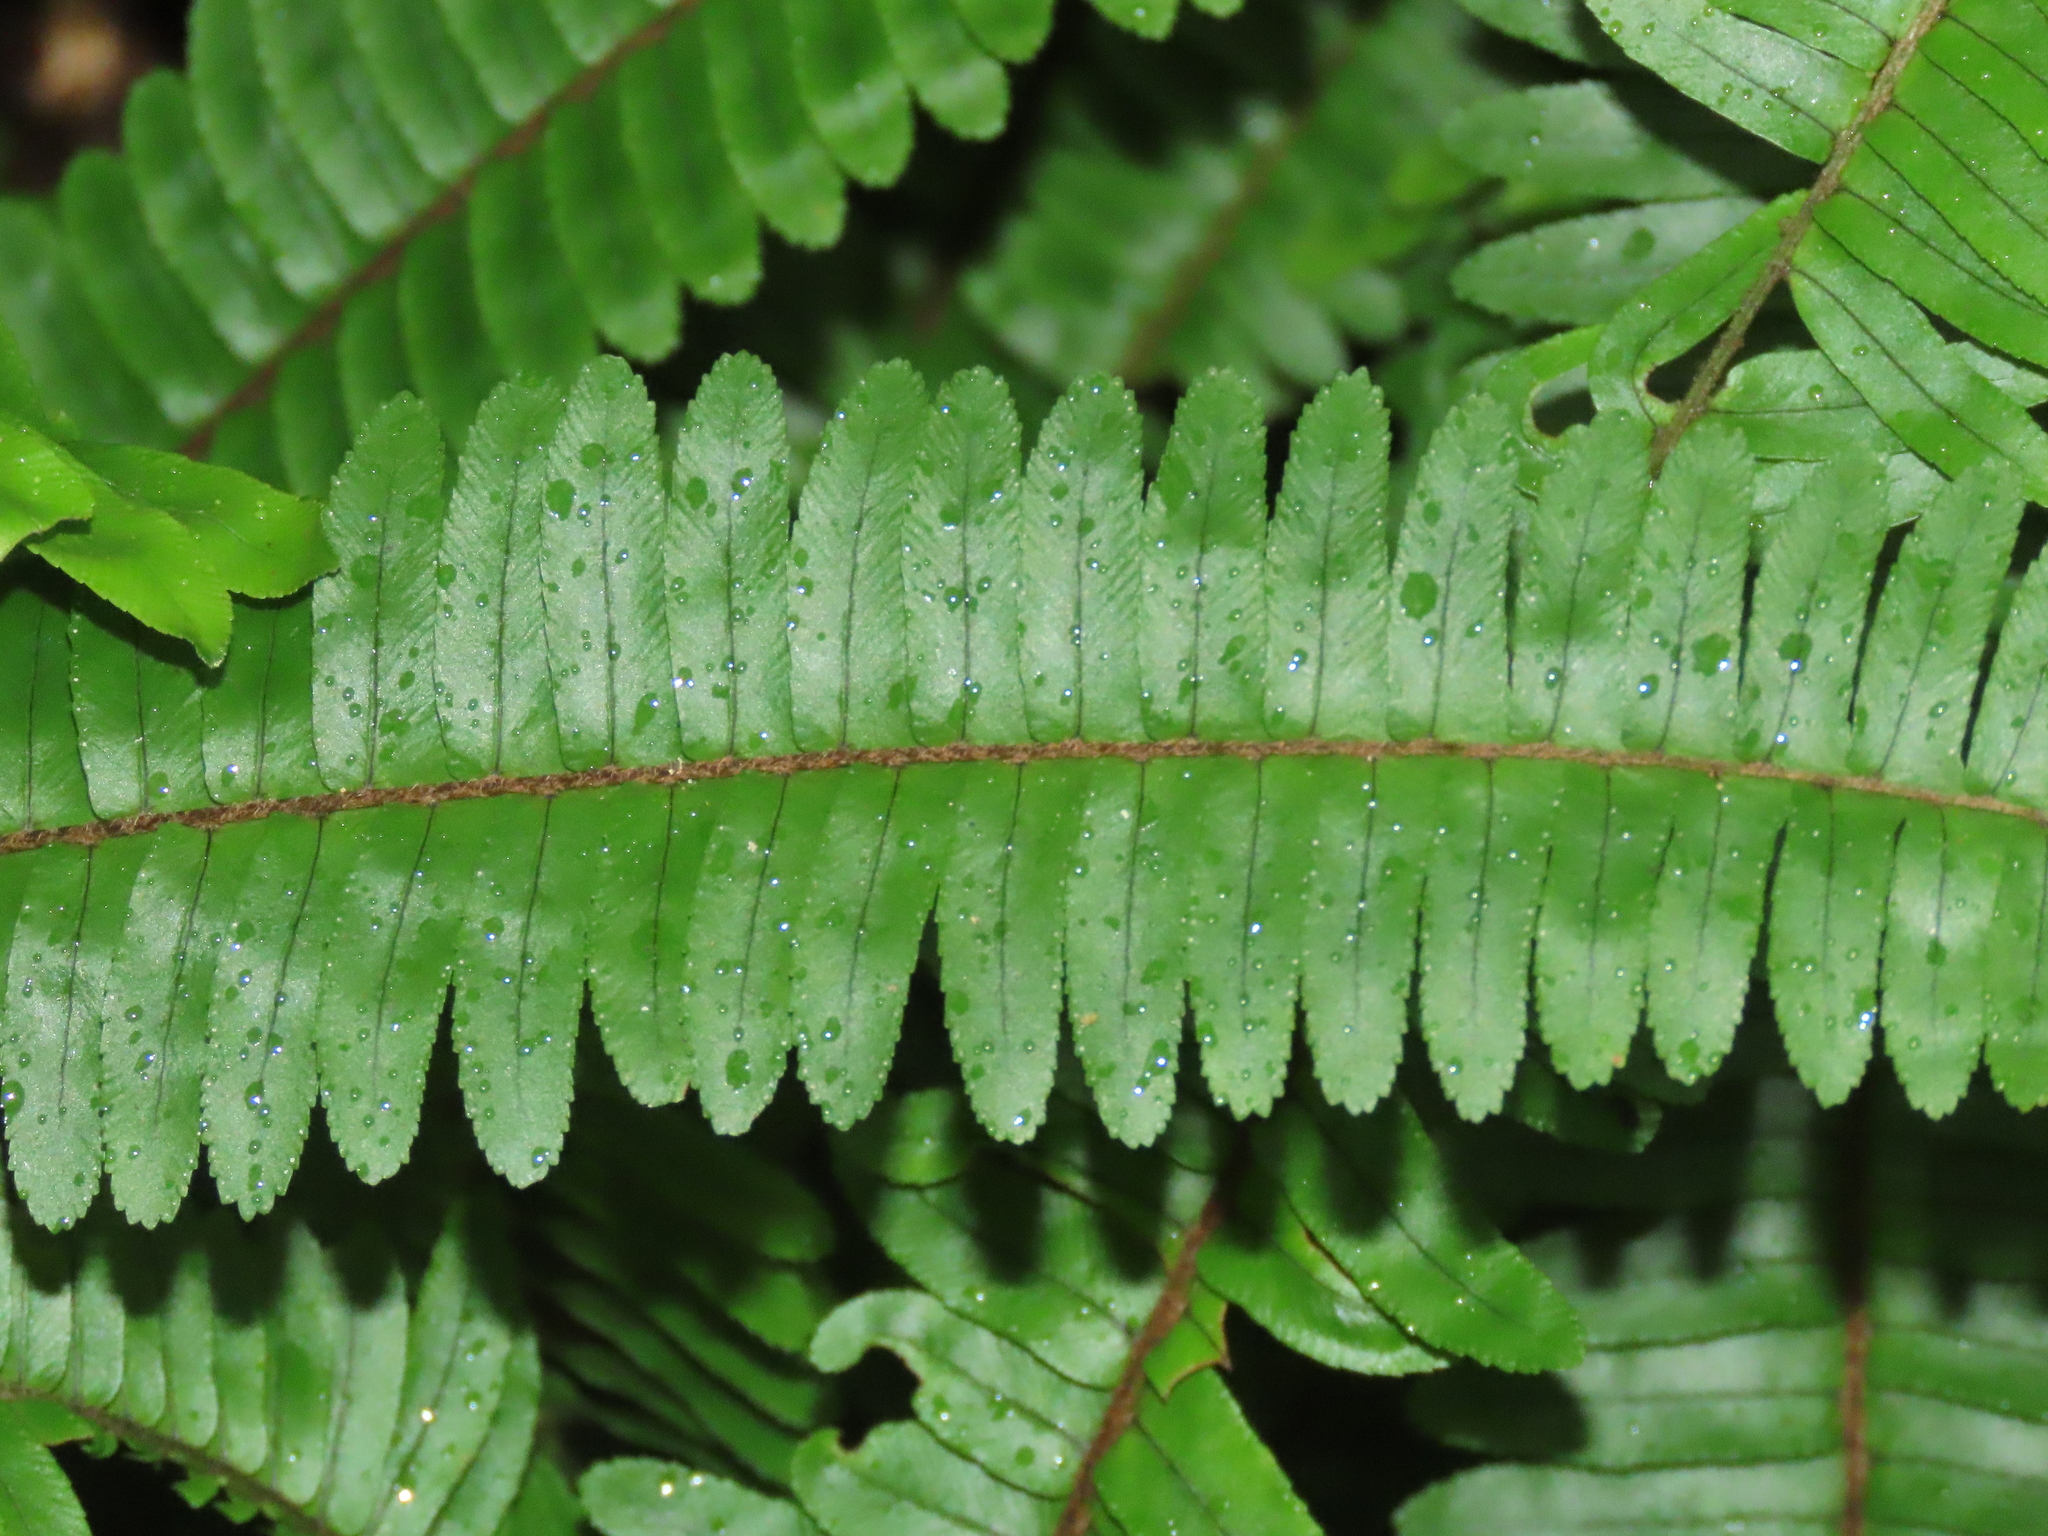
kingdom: Plantae
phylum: Tracheophyta
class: Polypodiopsida
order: Polypodiales
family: Nephrolepidaceae
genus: Nephrolepis
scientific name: Nephrolepis cordifolia
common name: Narrow swordfern
